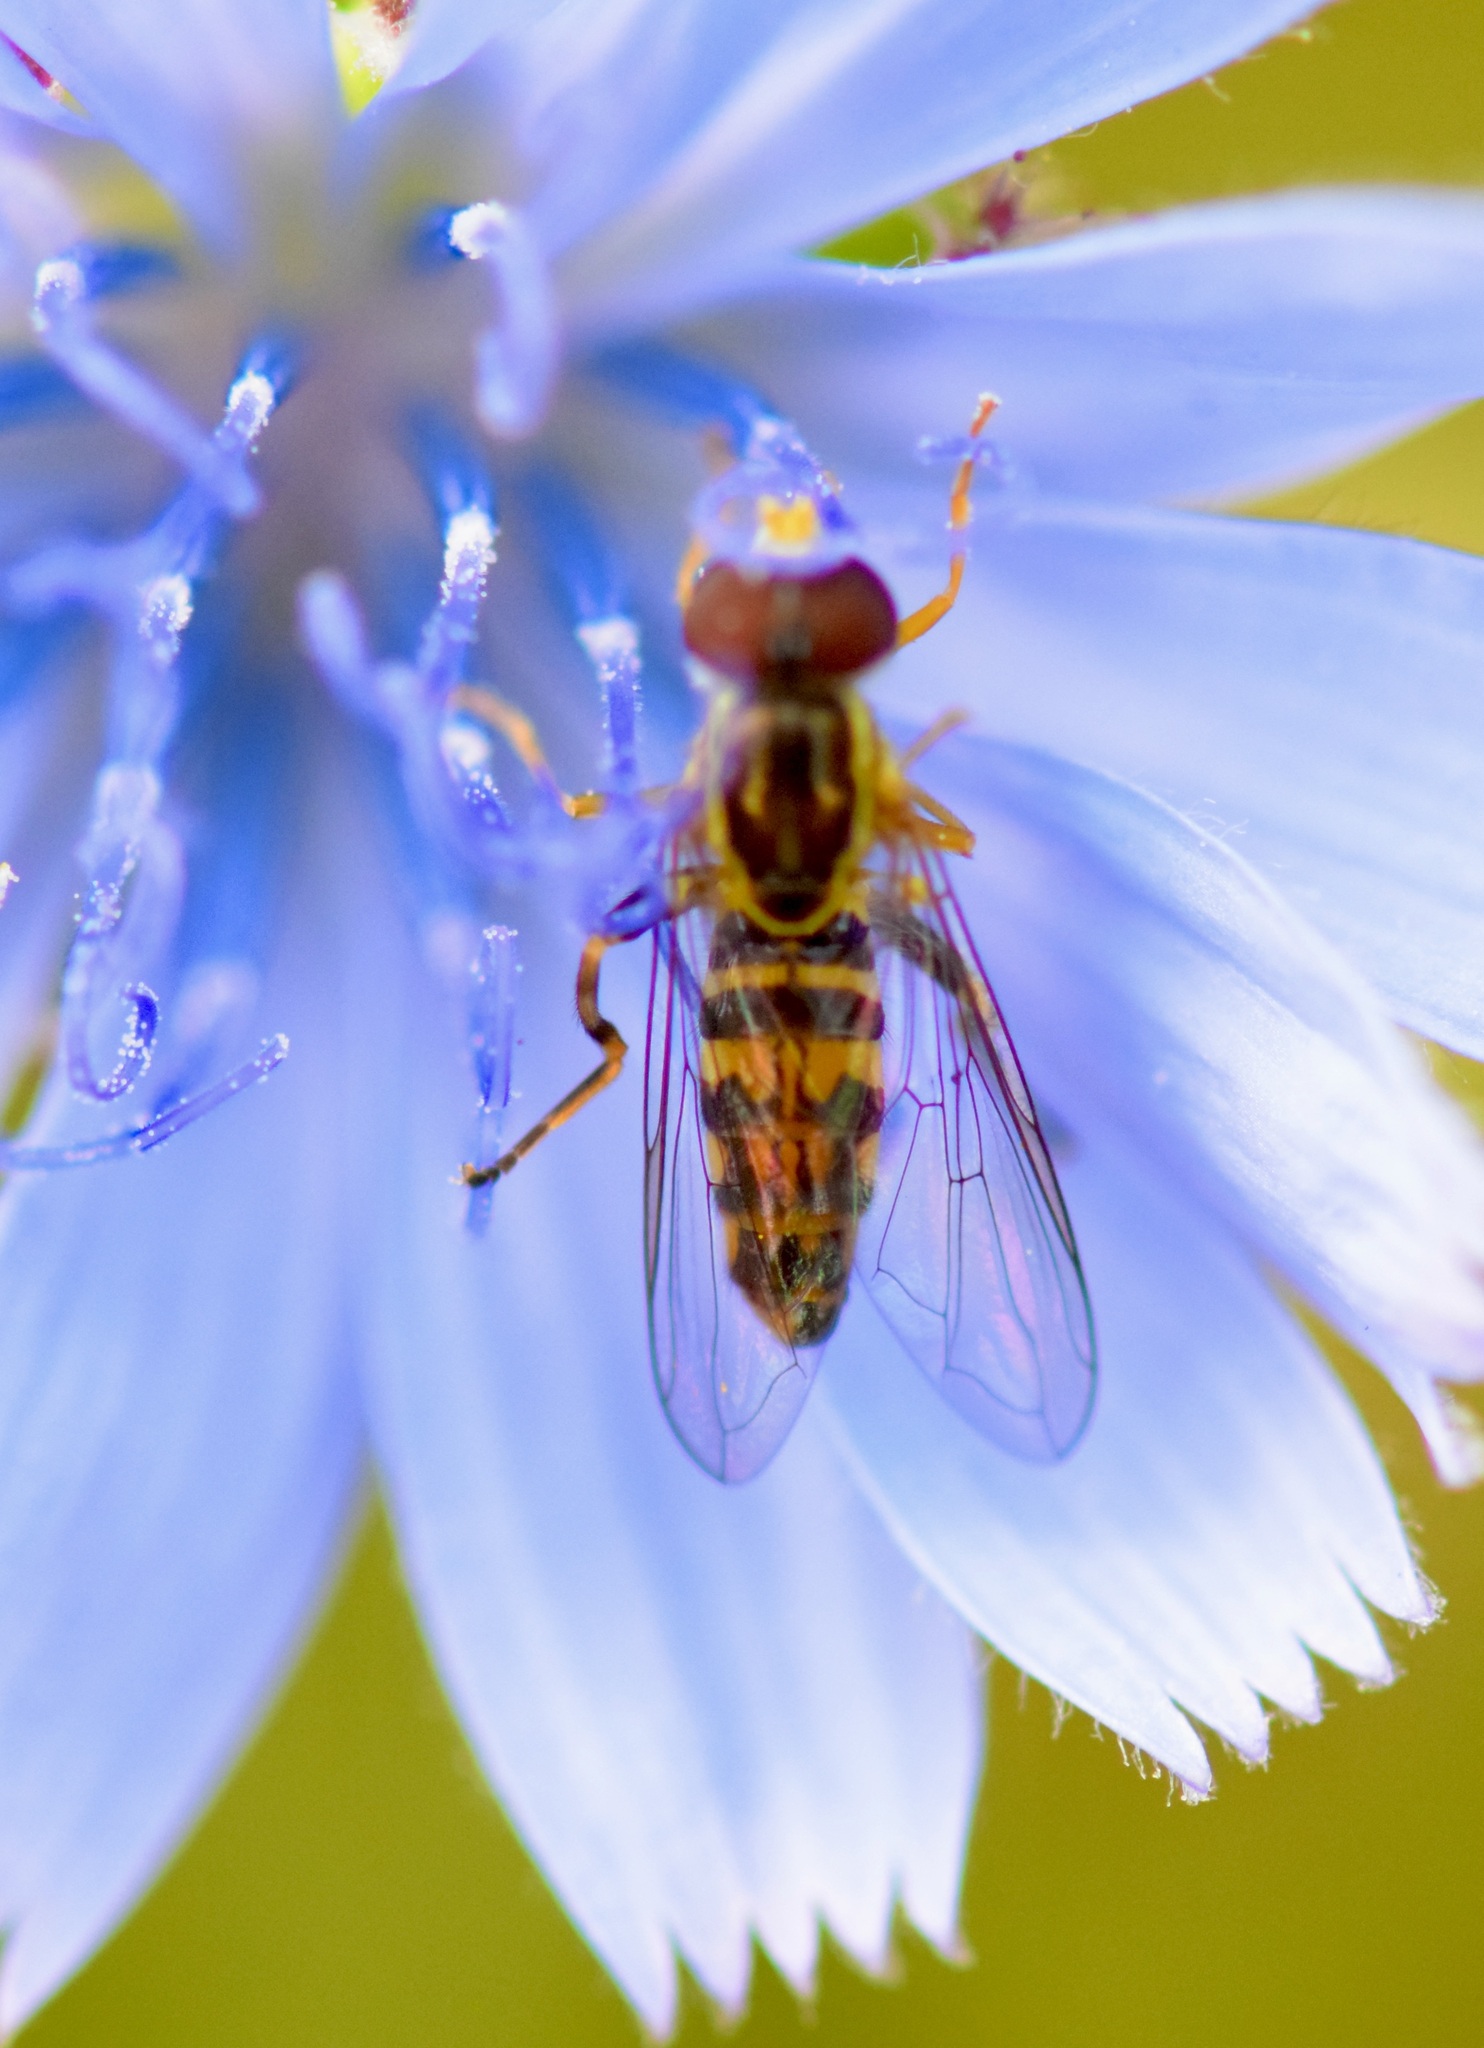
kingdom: Animalia
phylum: Arthropoda
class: Insecta
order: Diptera
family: Syrphidae
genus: Toxomerus
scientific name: Toxomerus geminatus
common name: Eastern calligrapher
